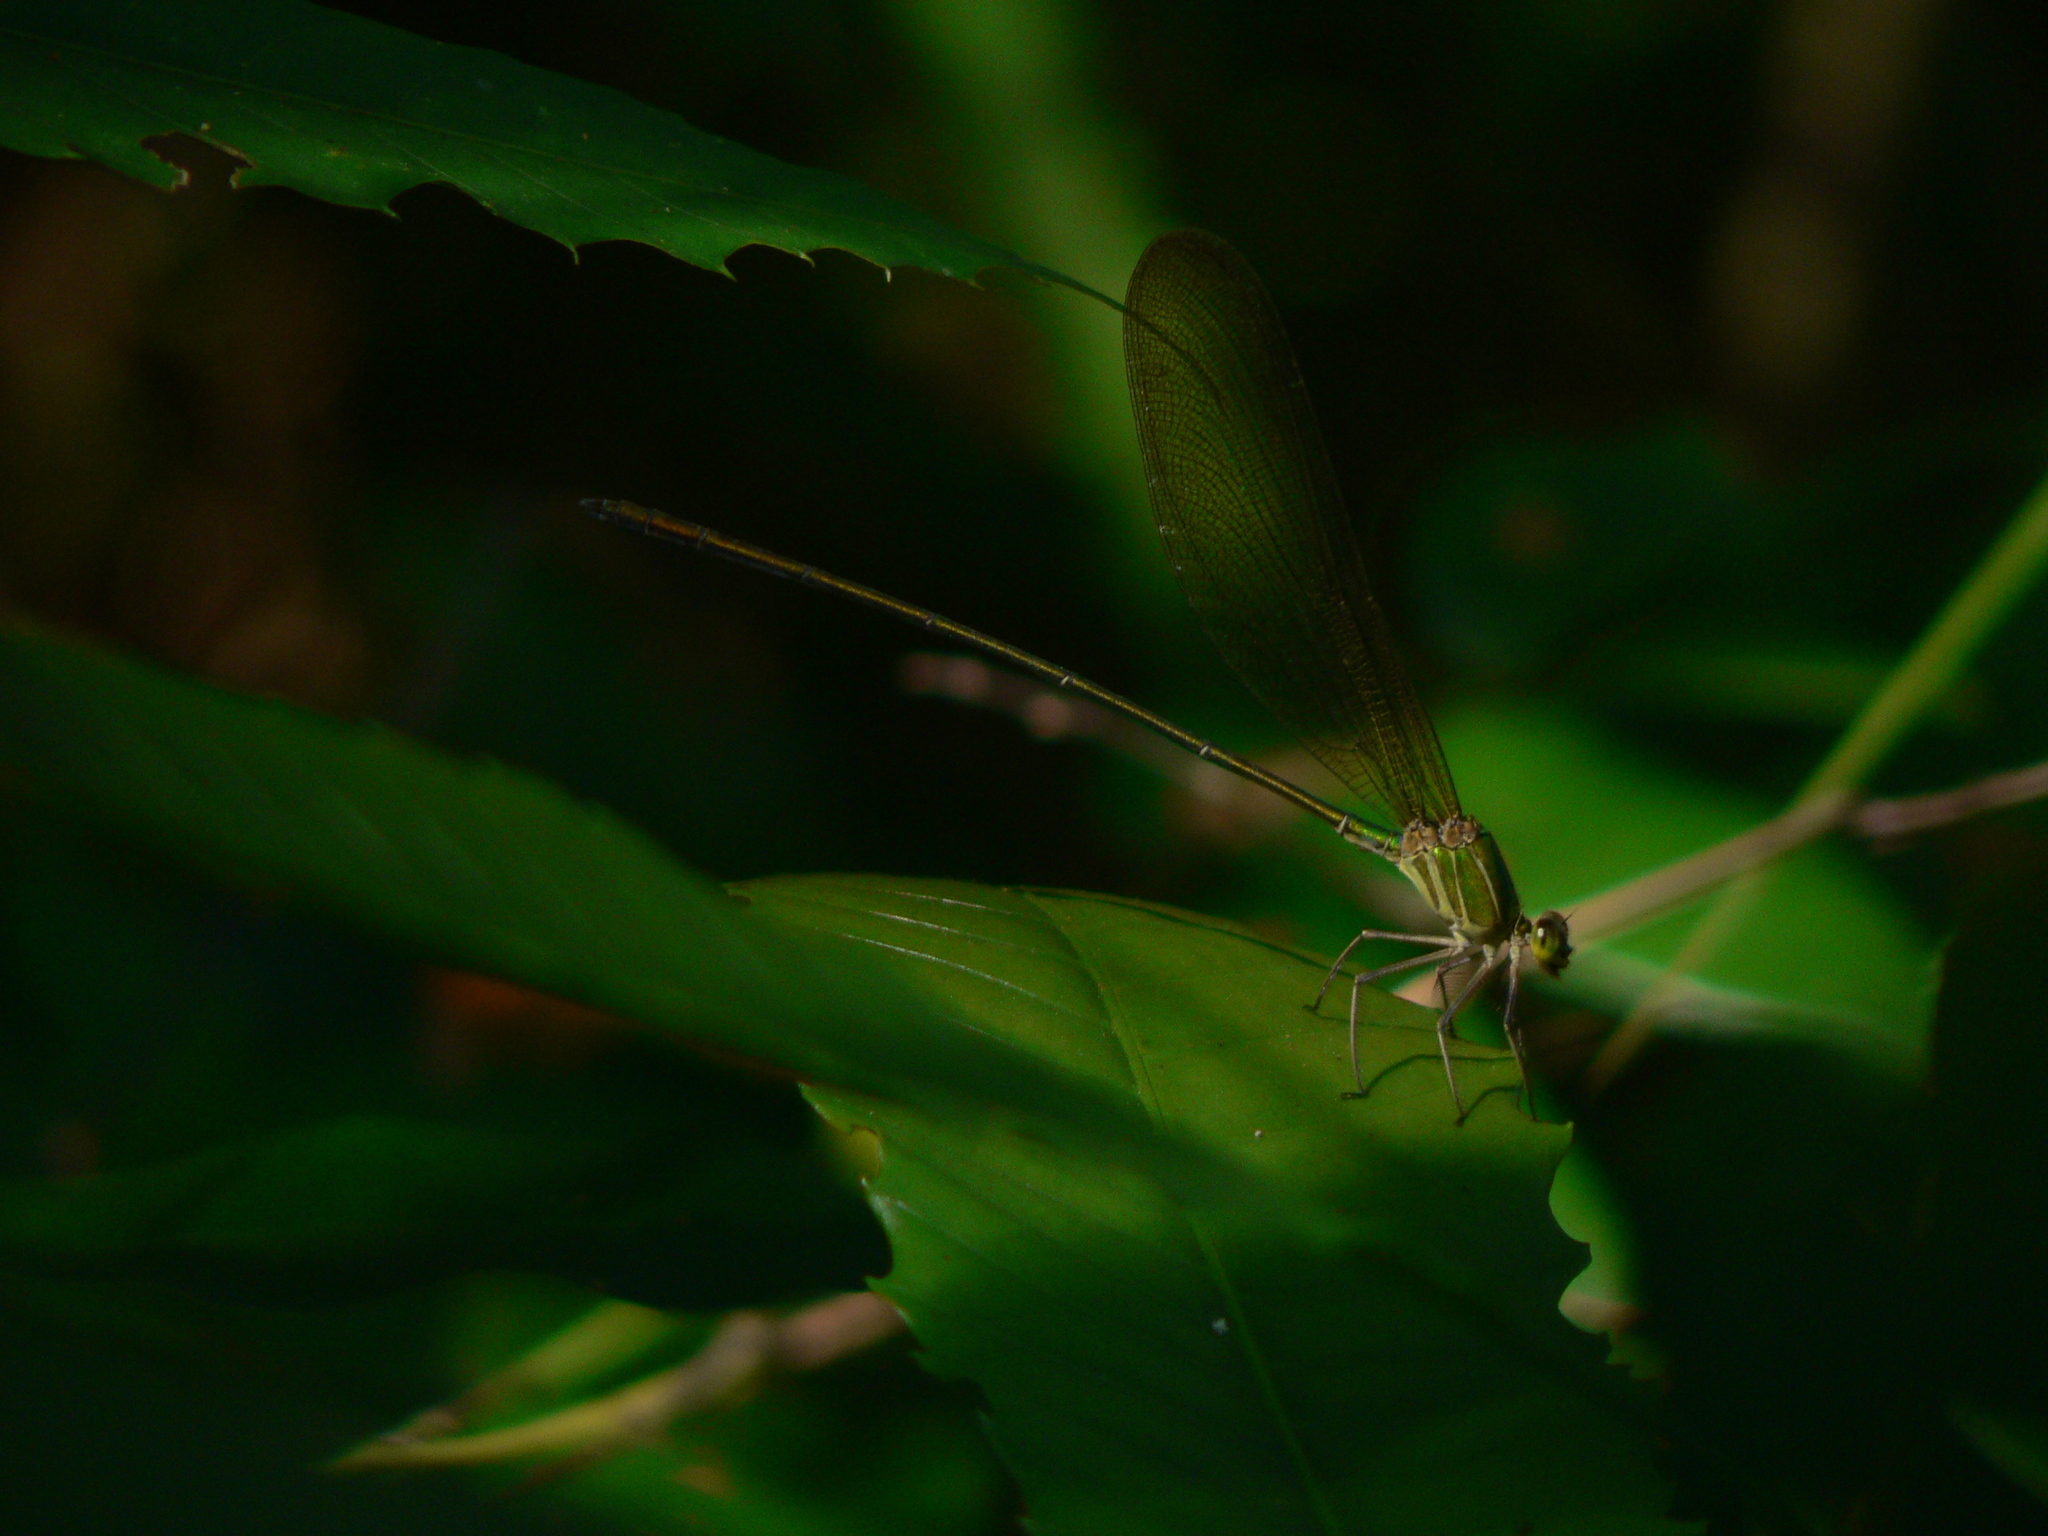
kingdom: Animalia
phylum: Arthropoda
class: Insecta
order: Odonata
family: Calopterygidae
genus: Vestalis
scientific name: Vestalis gracilis
